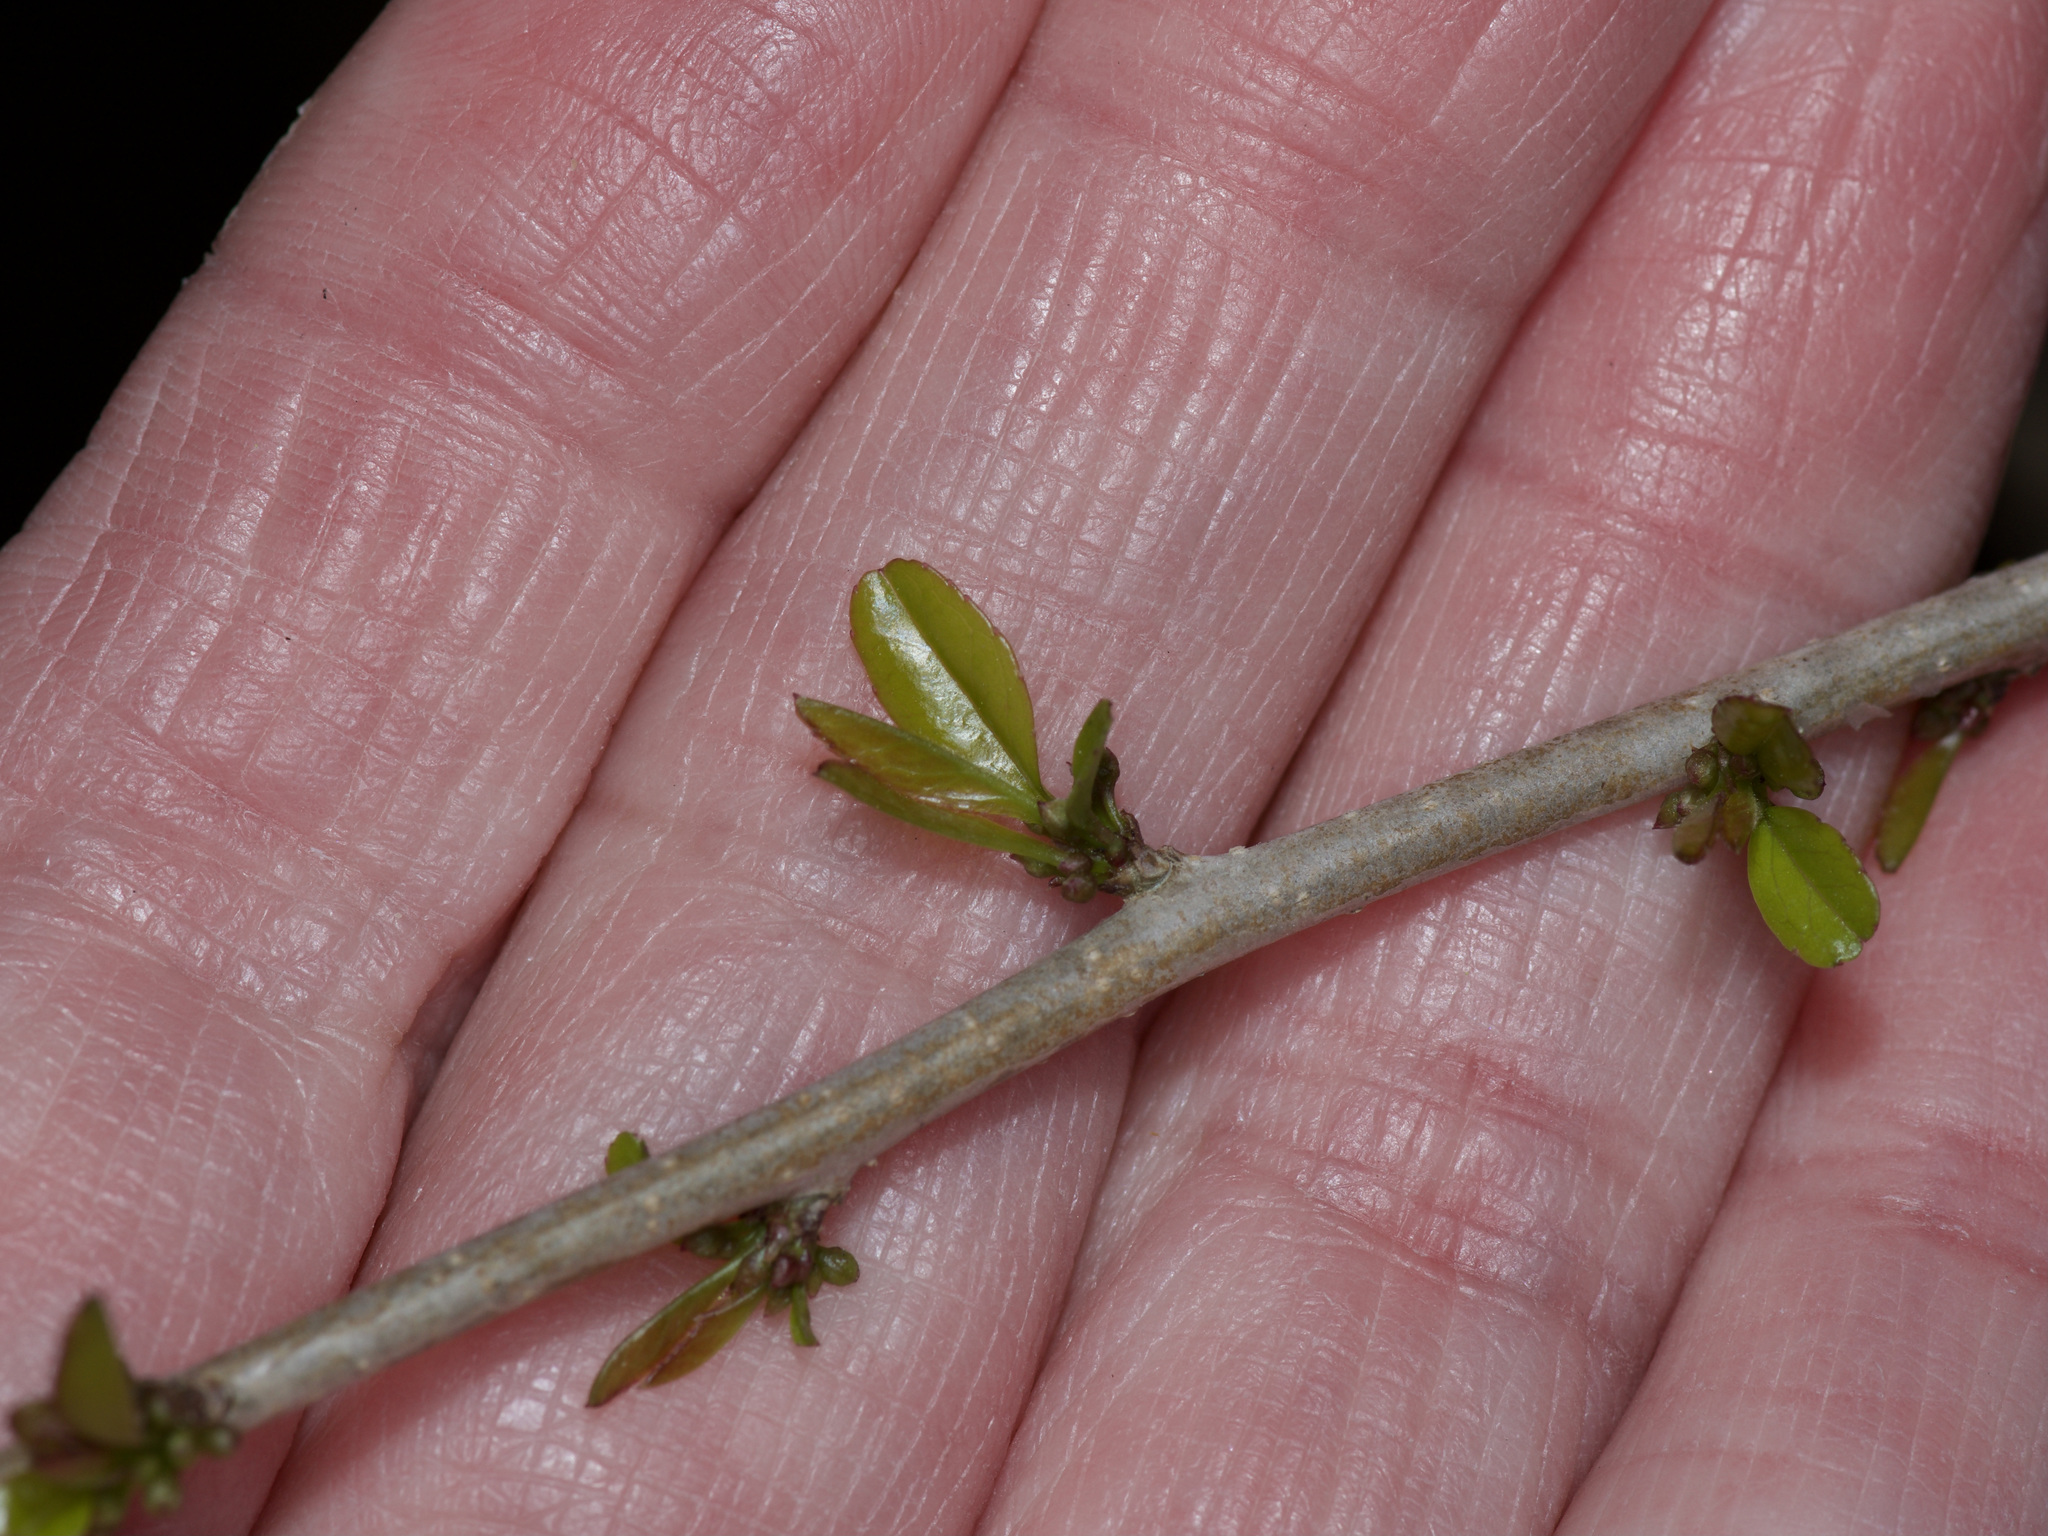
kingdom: Plantae
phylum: Tracheophyta
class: Magnoliopsida
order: Aquifoliales
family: Aquifoliaceae
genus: Ilex
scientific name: Ilex decidua
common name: Possum-haw
